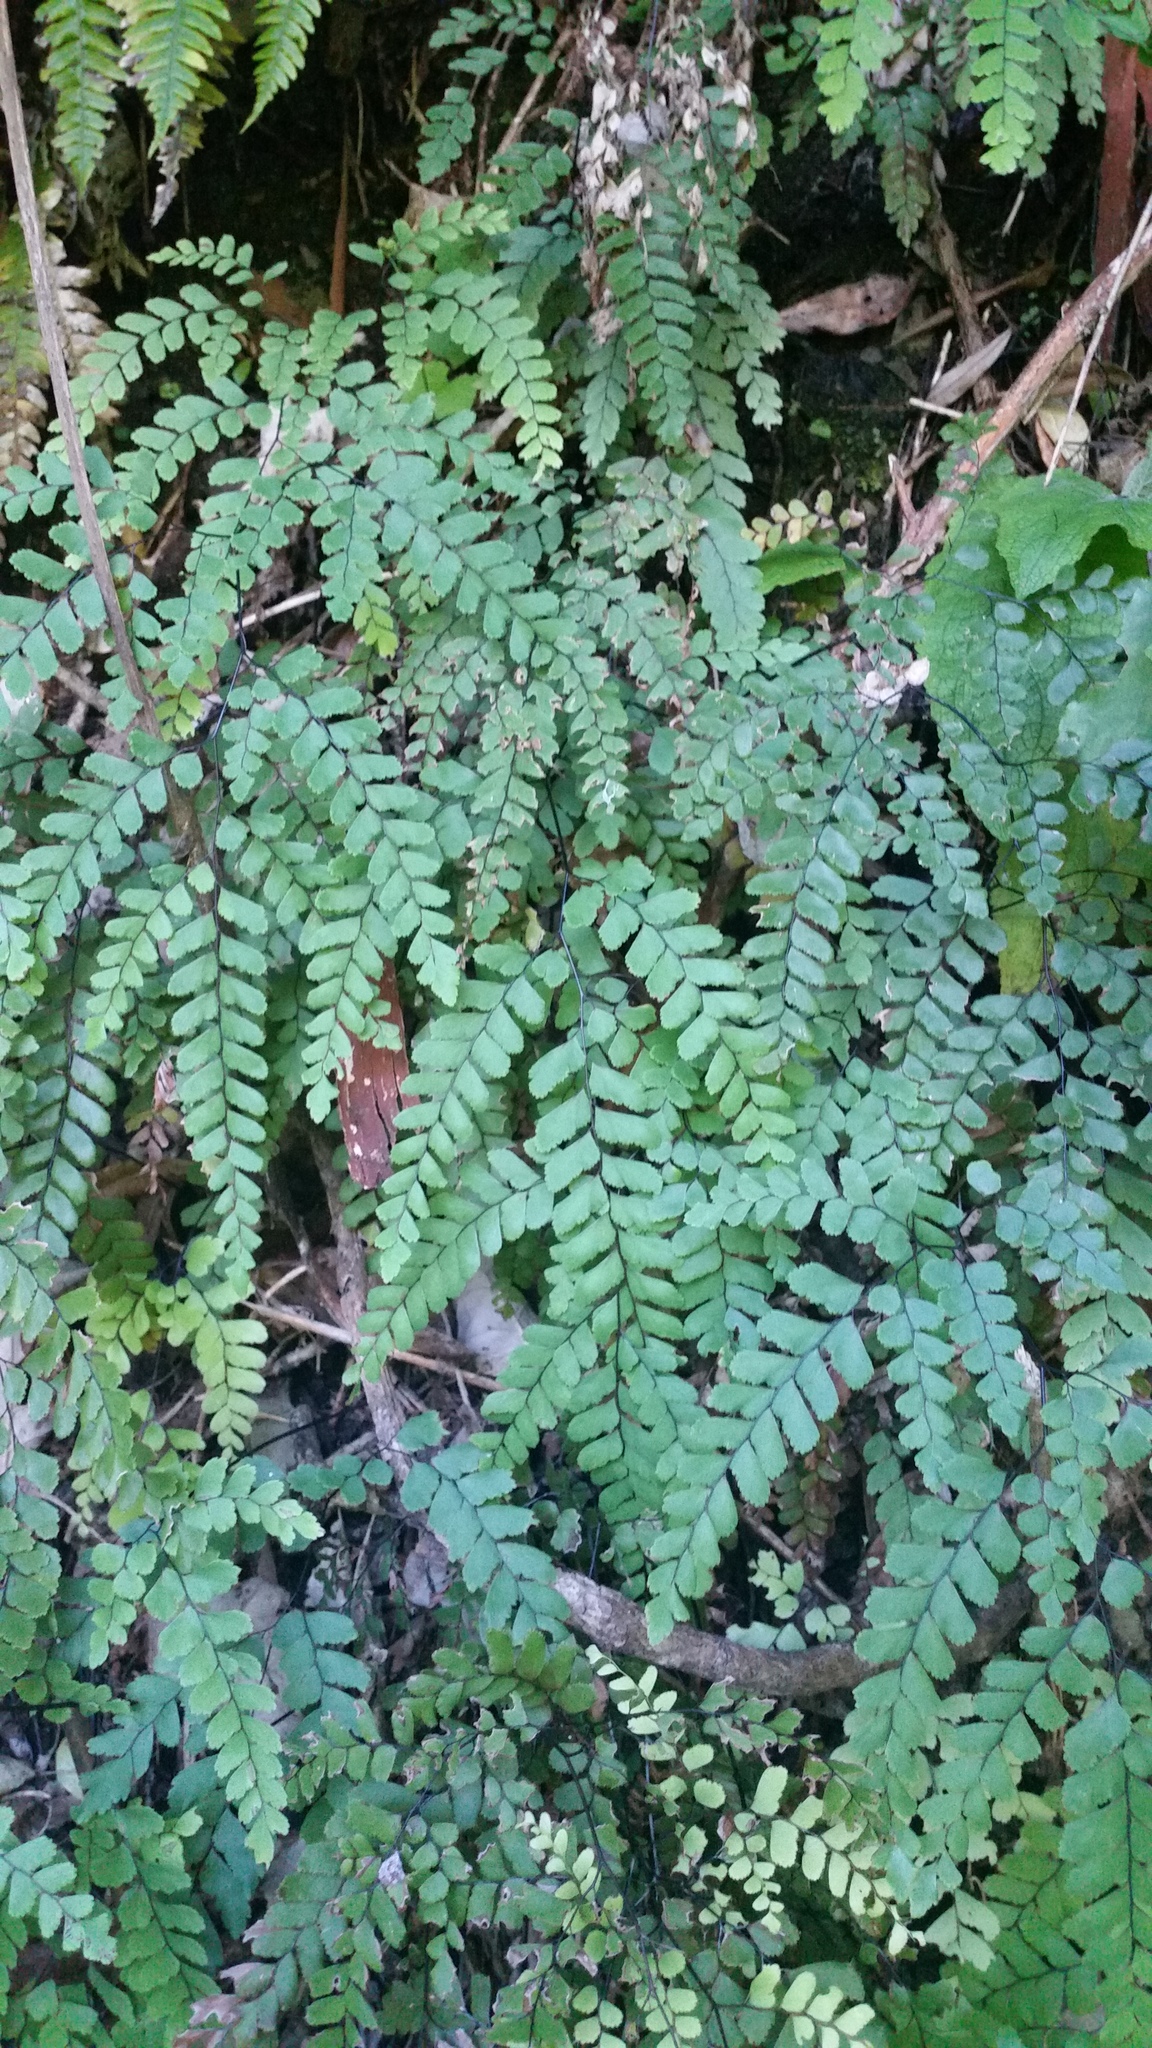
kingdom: Plantae
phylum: Tracheophyta
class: Polypodiopsida
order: Polypodiales
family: Pteridaceae
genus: Adiantum
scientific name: Adiantum cunninghamii
